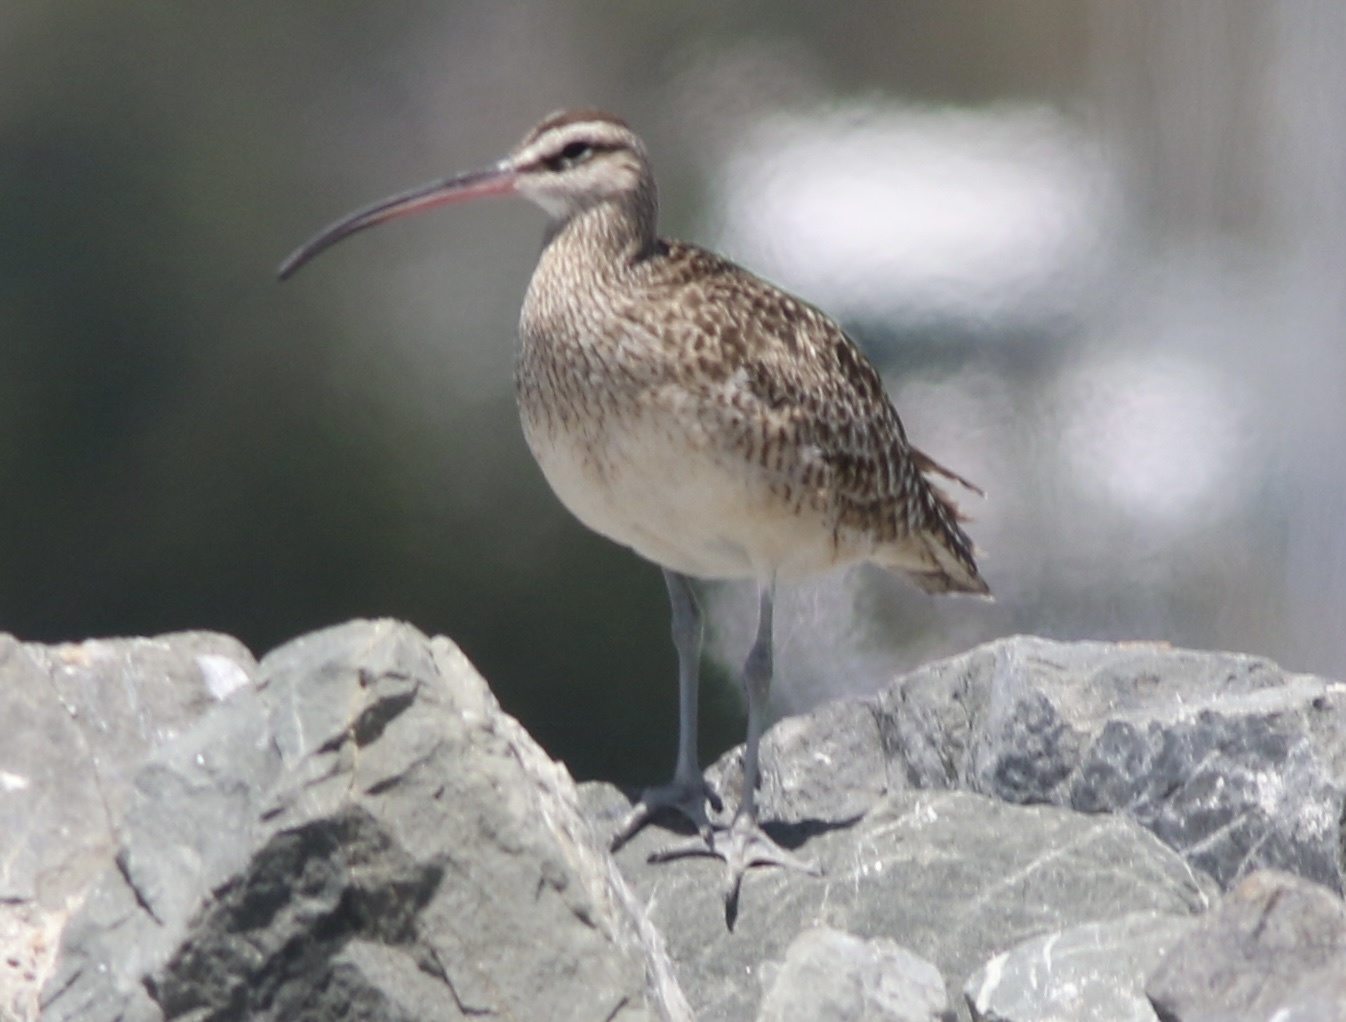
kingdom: Animalia
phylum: Chordata
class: Aves
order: Charadriiformes
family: Scolopacidae
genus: Numenius
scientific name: Numenius phaeopus
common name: Whimbrel
